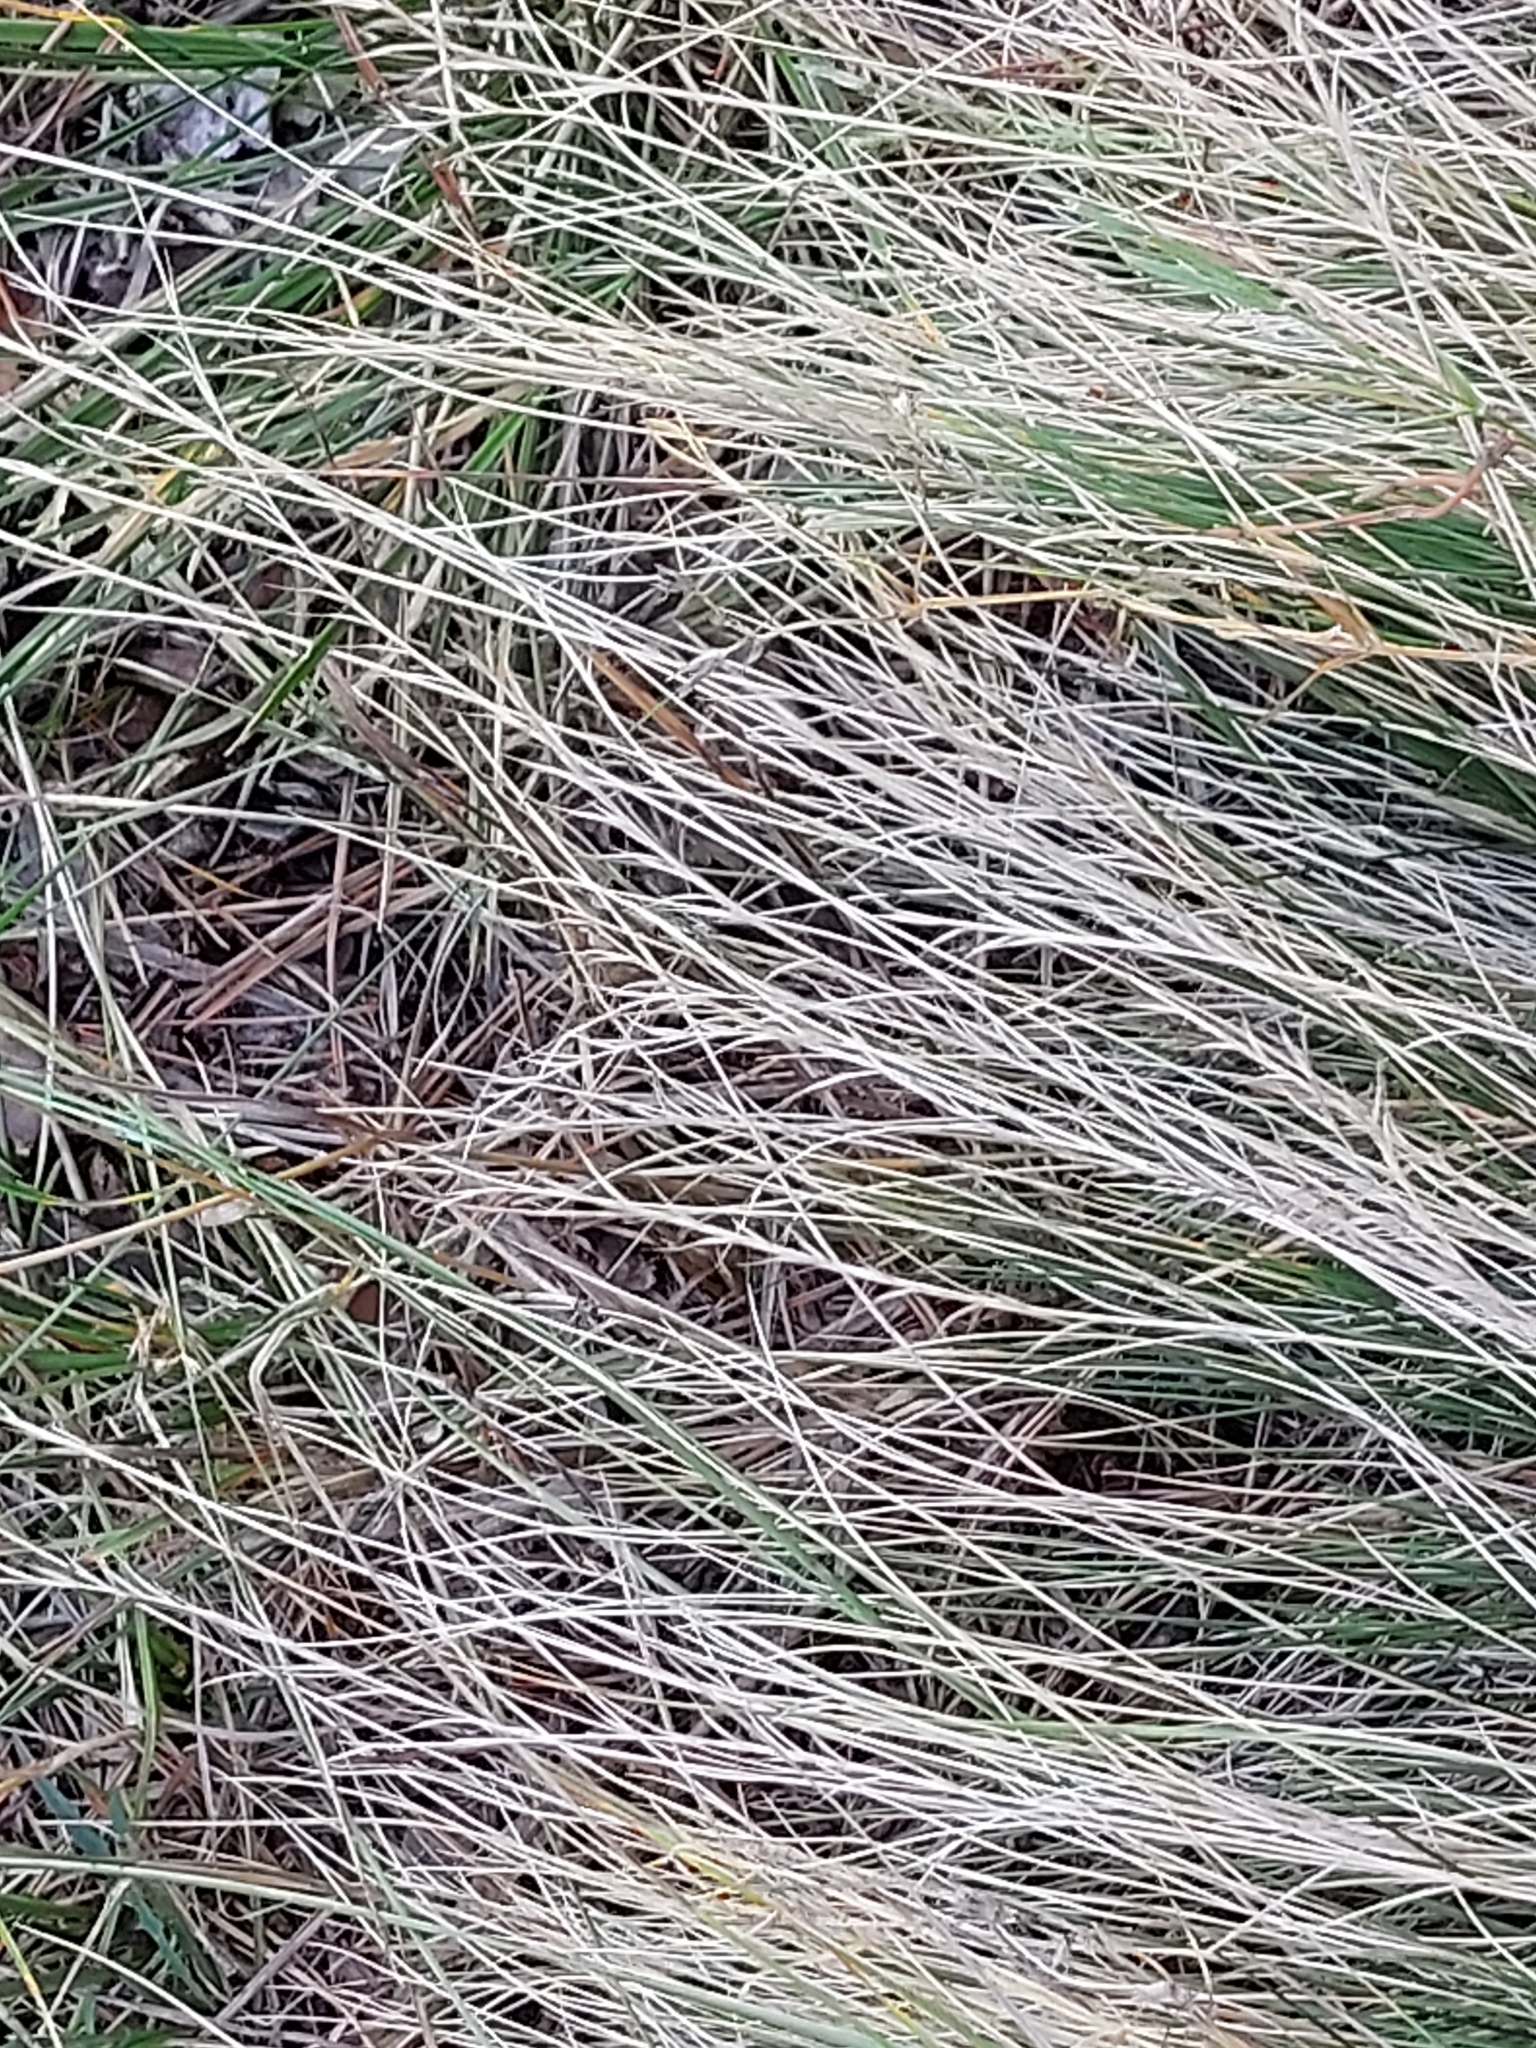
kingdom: Plantae
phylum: Tracheophyta
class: Liliopsida
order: Poales
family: Poaceae
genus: Nardus
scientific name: Nardus stricta
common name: Mat-grass
